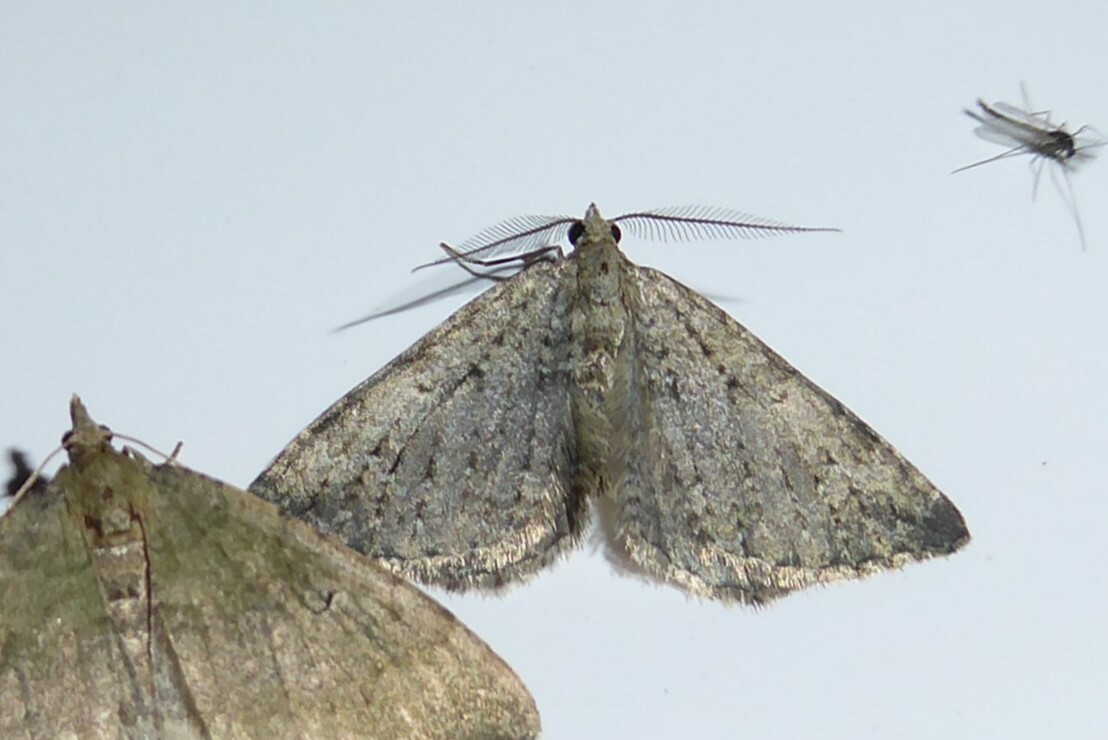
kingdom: Animalia
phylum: Arthropoda
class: Insecta
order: Lepidoptera
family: Geometridae
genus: Helastia
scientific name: Helastia corcularia
